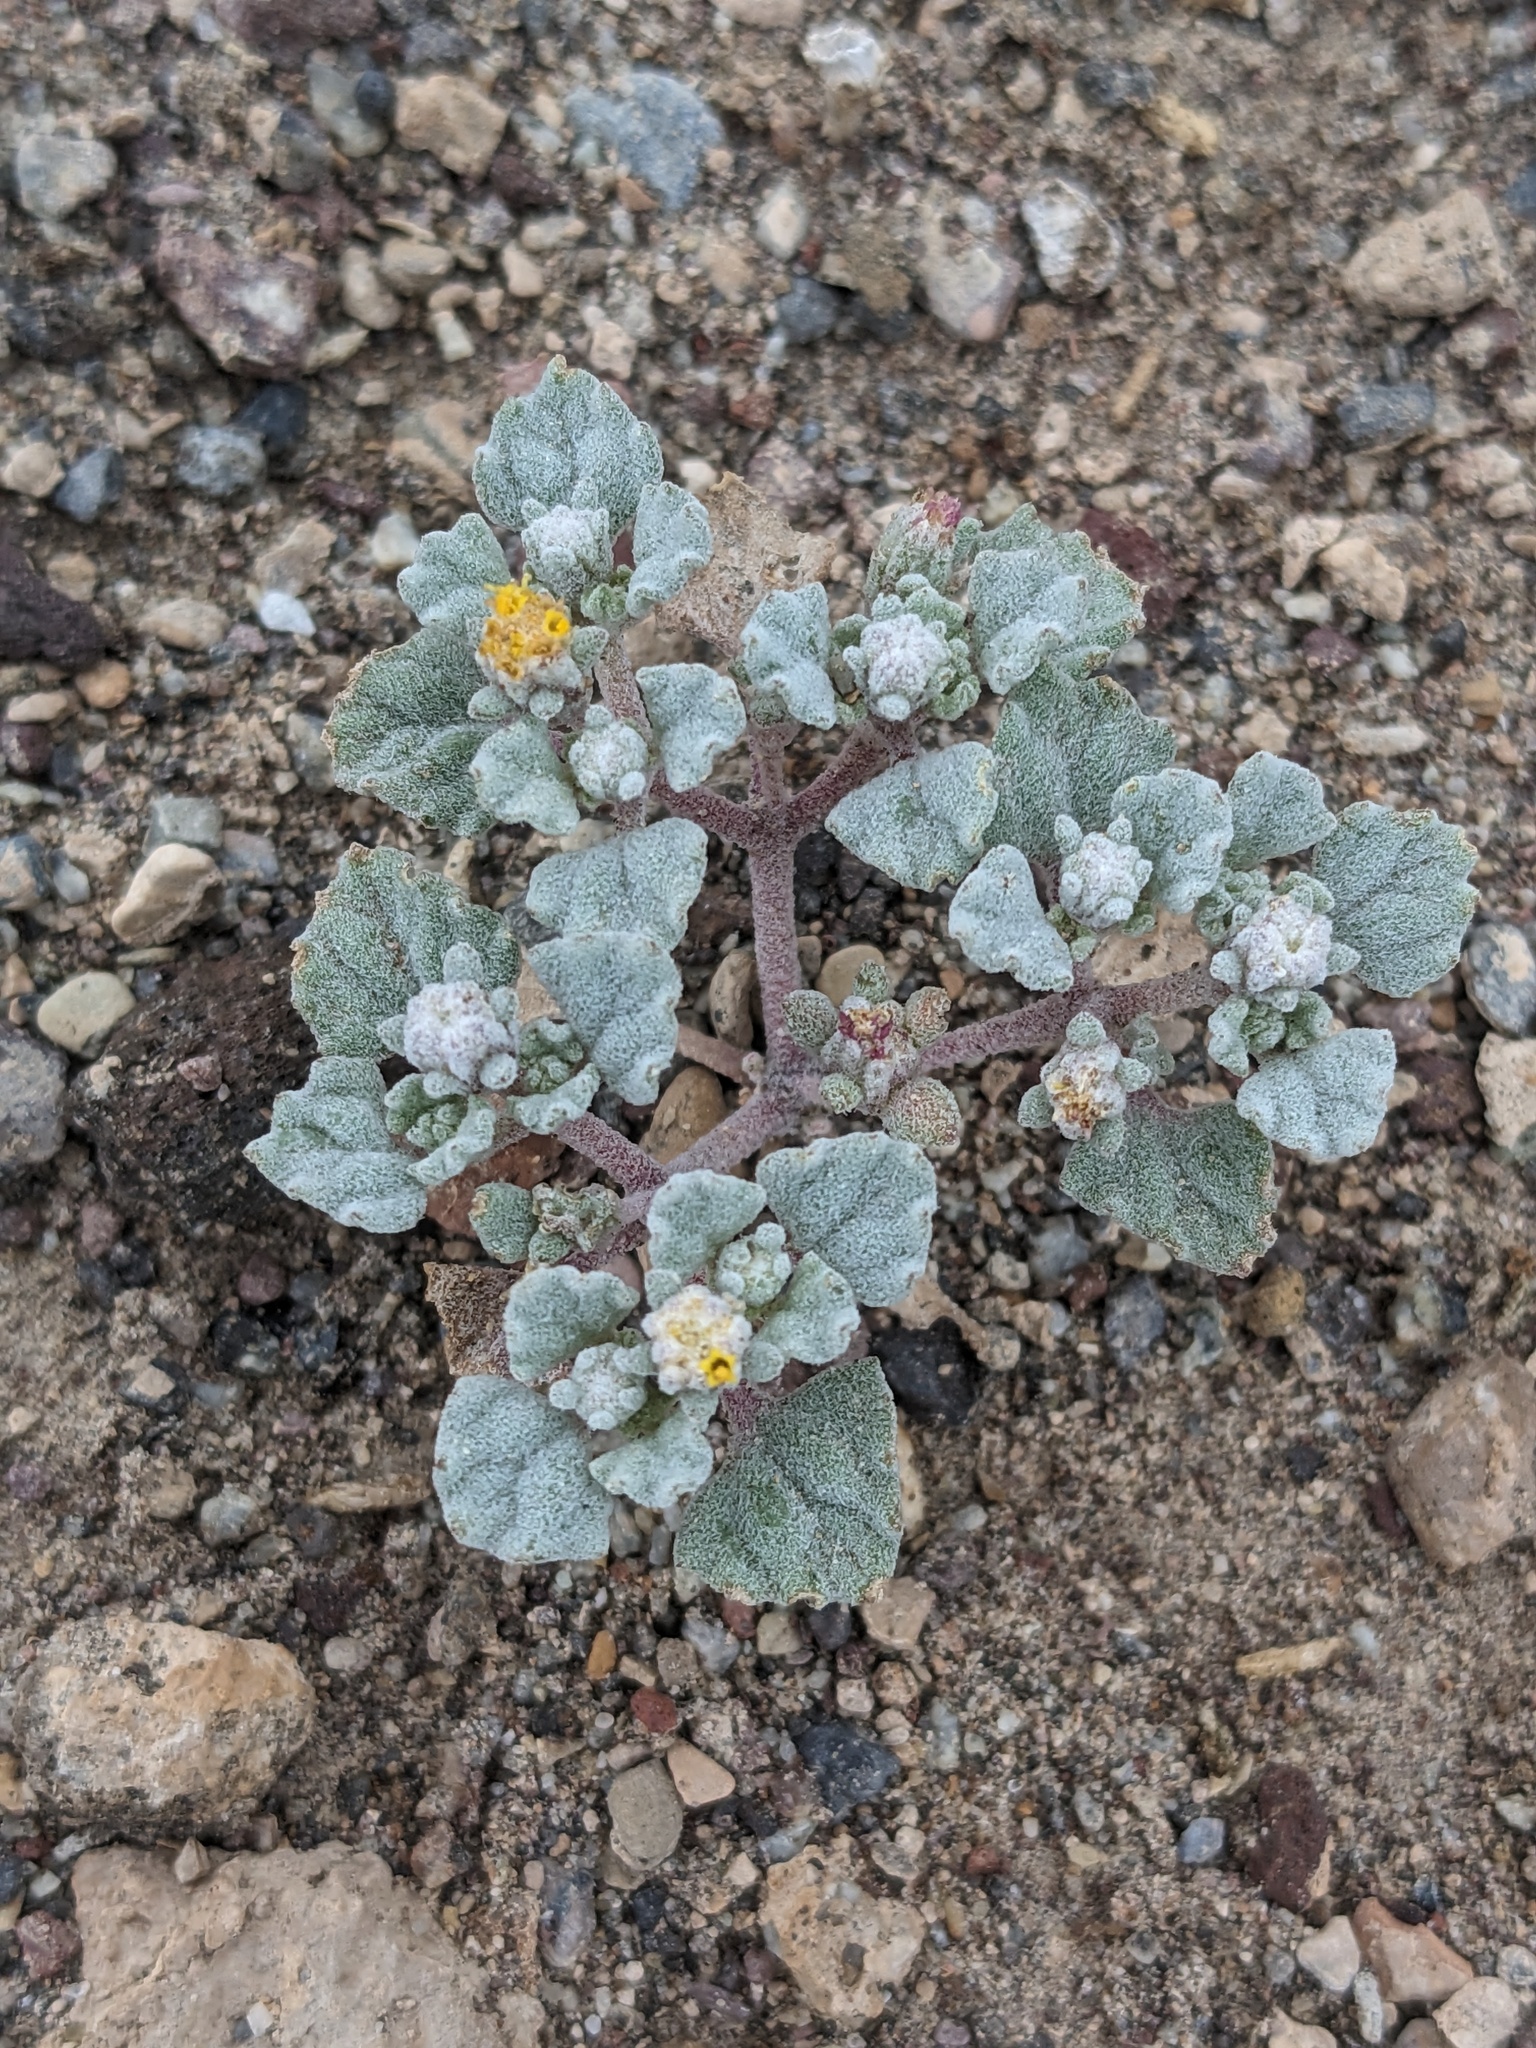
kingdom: Plantae
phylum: Tracheophyta
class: Magnoliopsida
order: Asterales
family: Asteraceae
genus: Psathyrotes
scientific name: Psathyrotes annua
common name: Mealy rosettes
